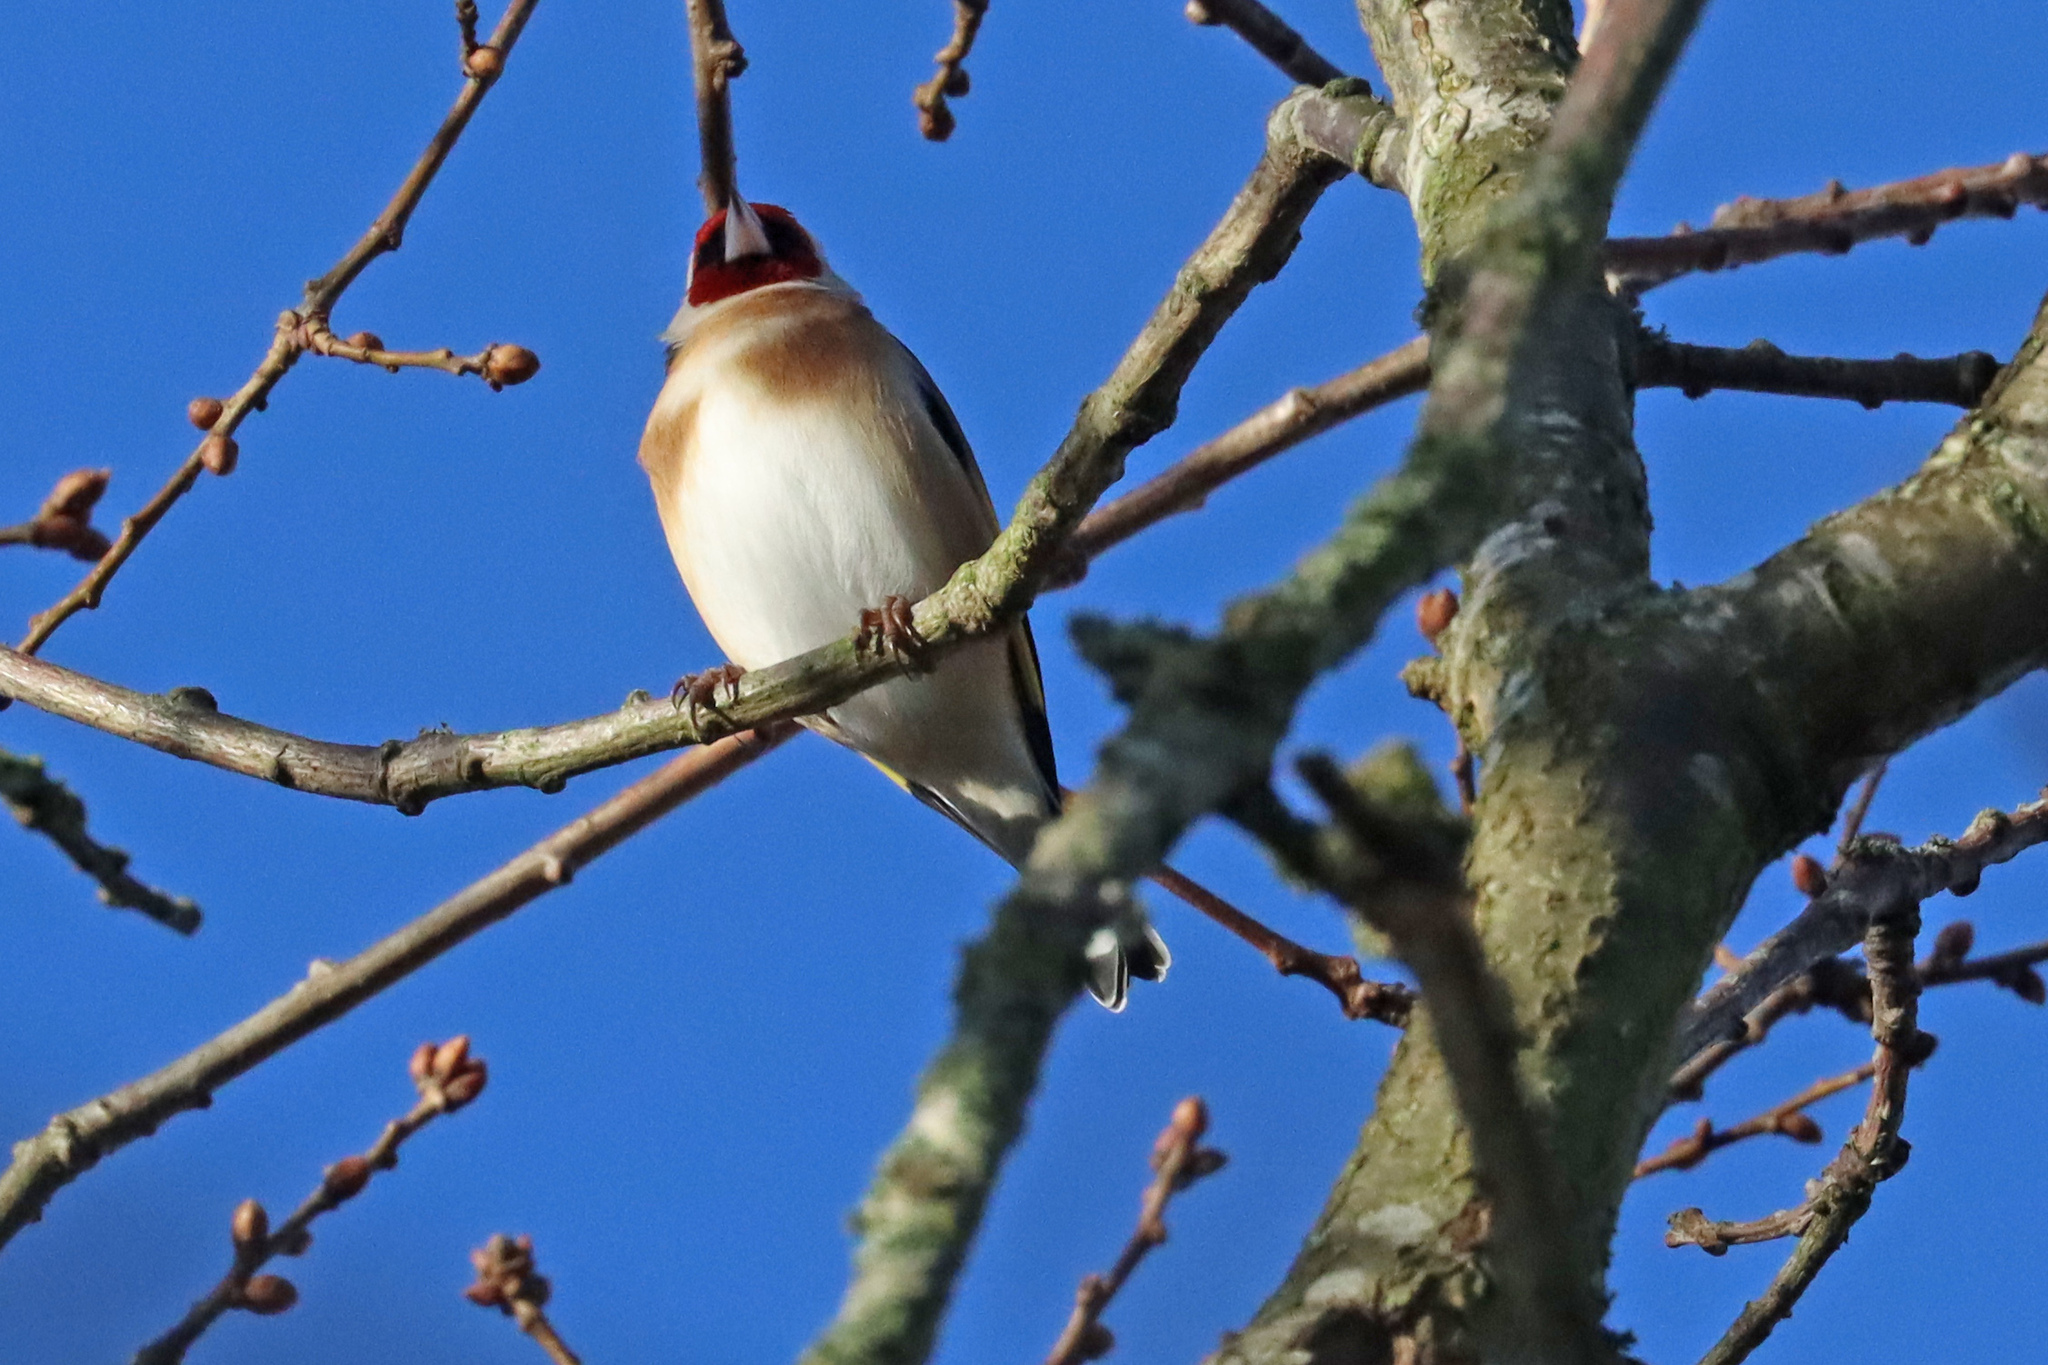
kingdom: Animalia
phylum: Chordata
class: Aves
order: Passeriformes
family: Fringillidae
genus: Carduelis
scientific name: Carduelis carduelis
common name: European goldfinch
